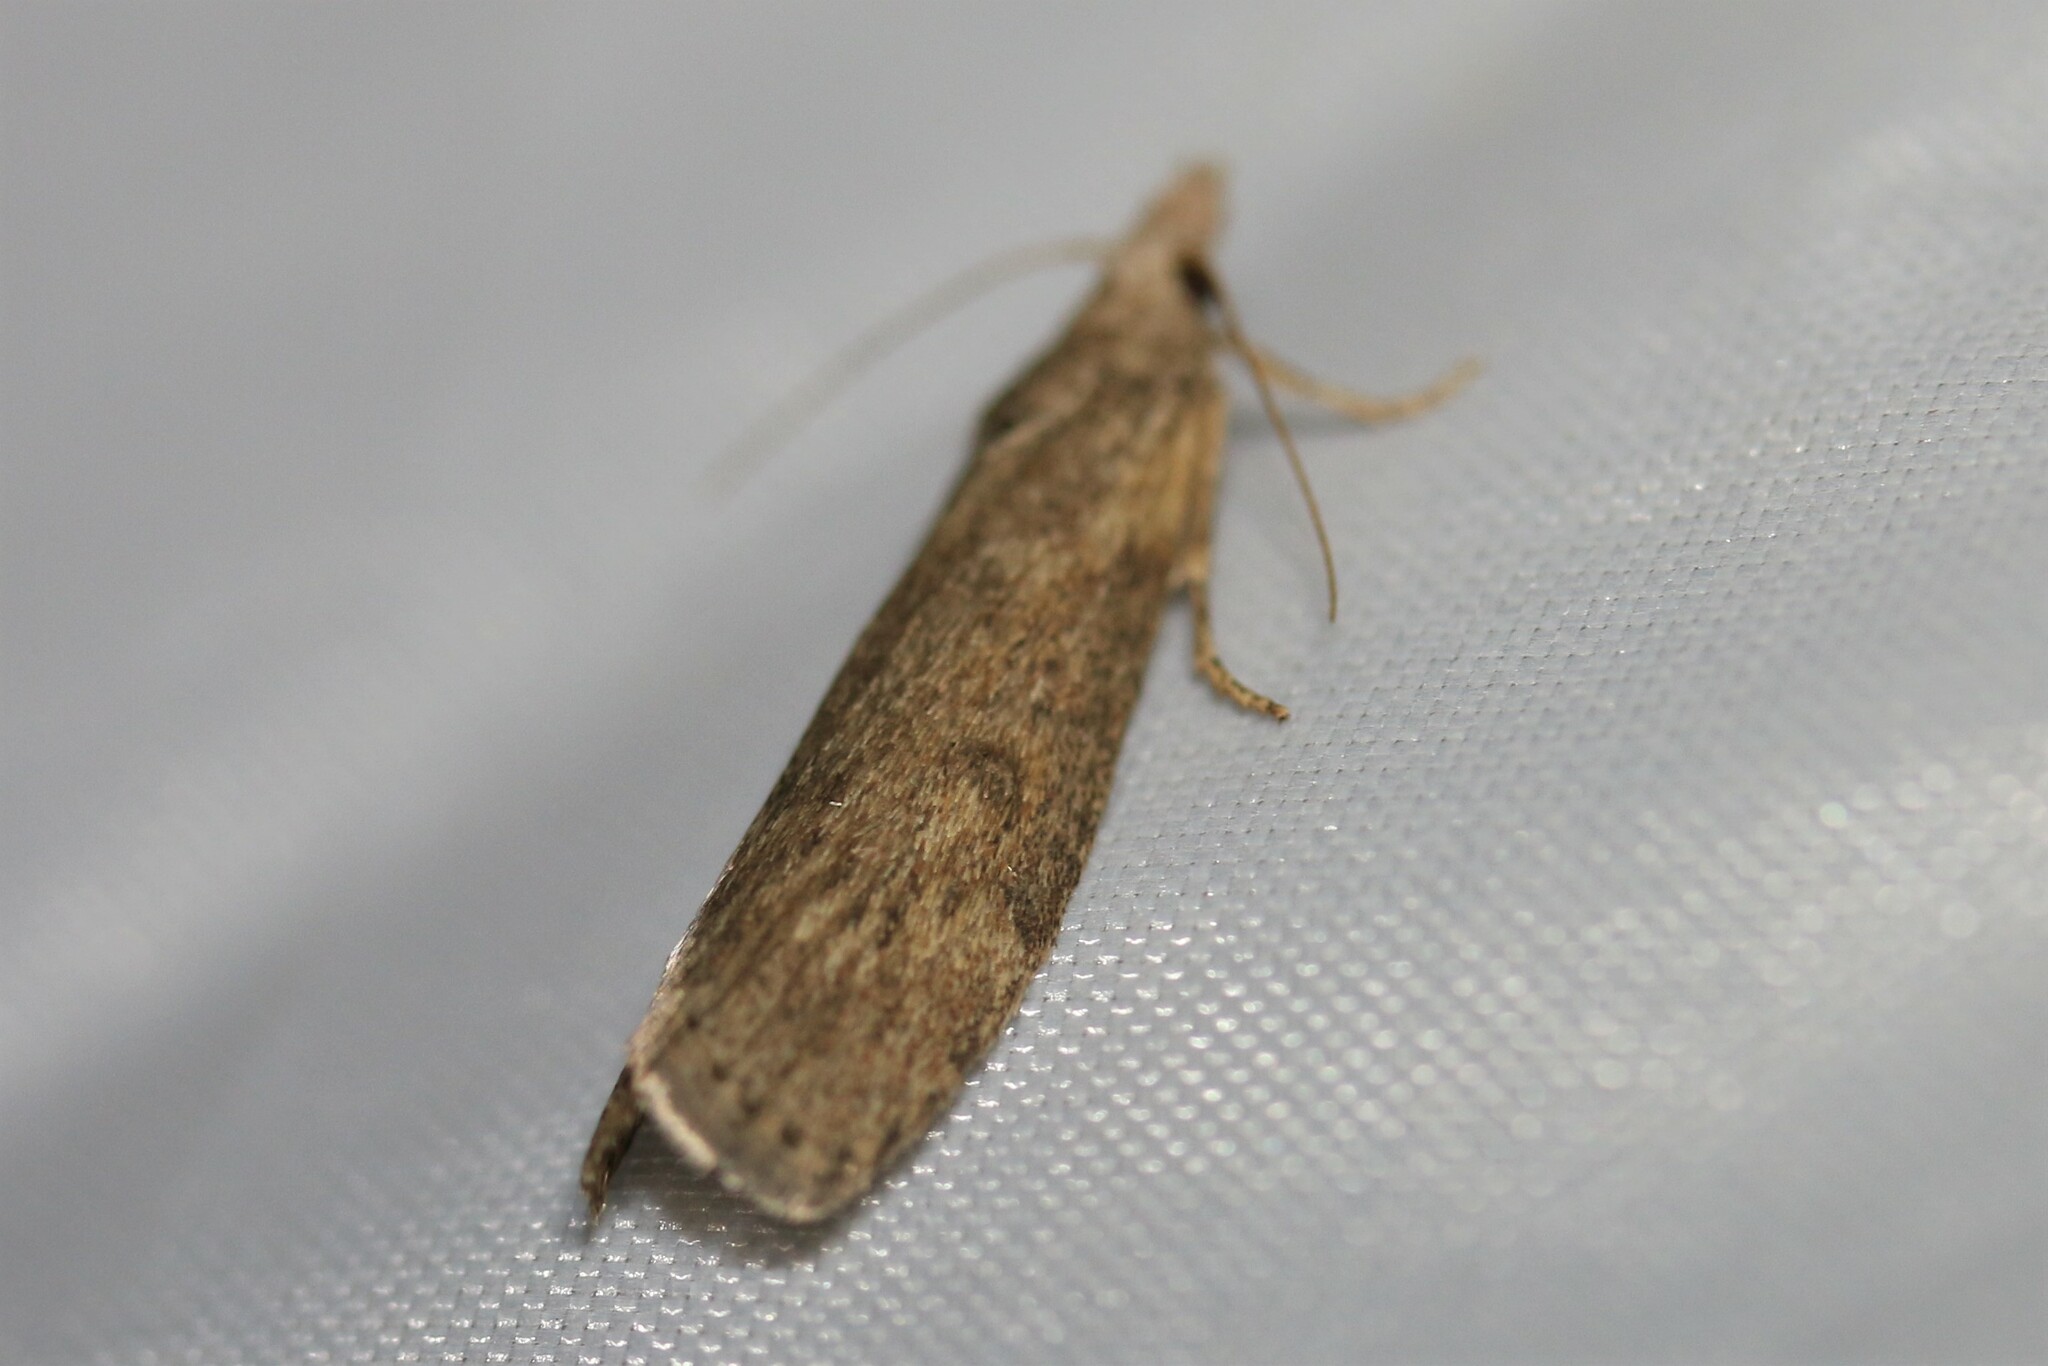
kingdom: Animalia
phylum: Arthropoda
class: Insecta
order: Lepidoptera
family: Pyralidae
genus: Lamoria
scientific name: Lamoria anella
